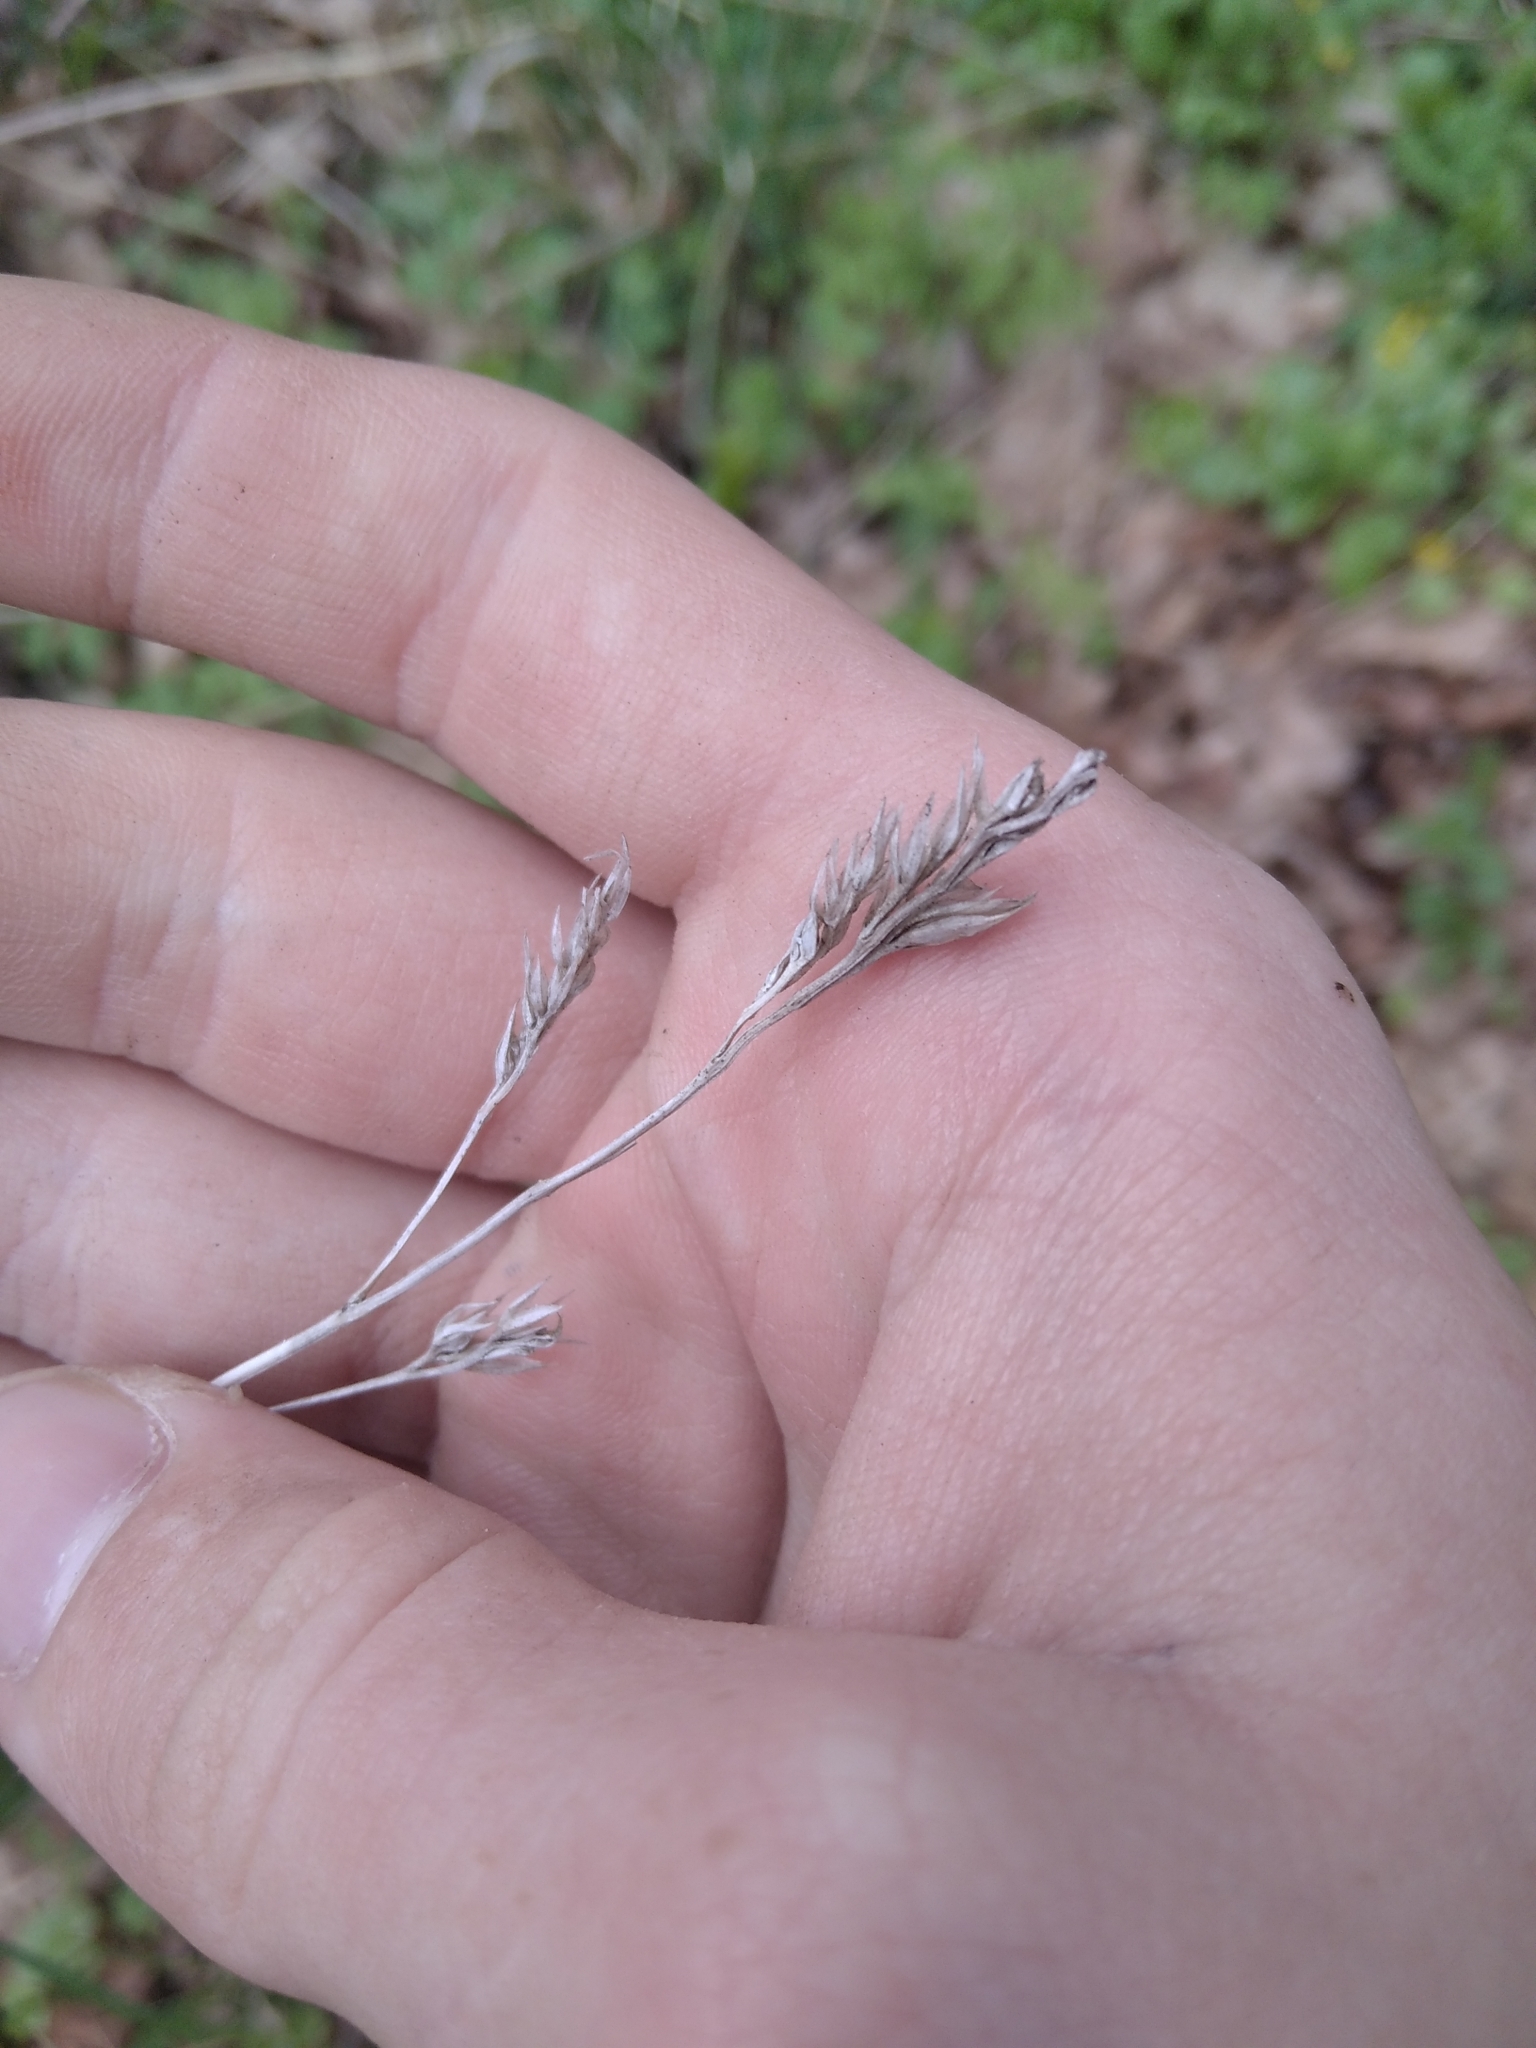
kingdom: Plantae
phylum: Tracheophyta
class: Liliopsida
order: Poales
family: Poaceae
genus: Dactylis
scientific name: Dactylis glomerata
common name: Orchardgrass
